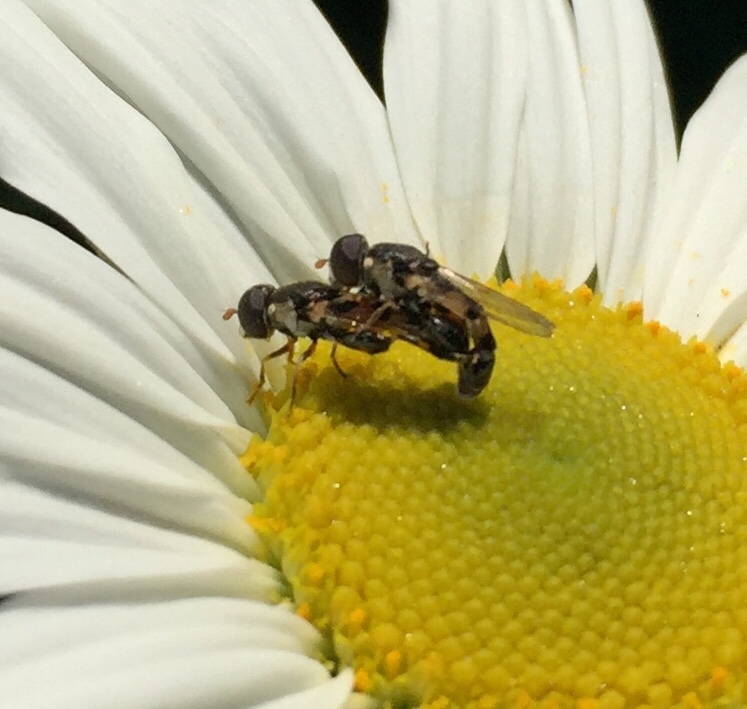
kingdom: Animalia
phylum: Arthropoda
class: Insecta
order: Diptera
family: Syrphidae
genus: Syritta
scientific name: Syritta pipiens
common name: Hover fly
